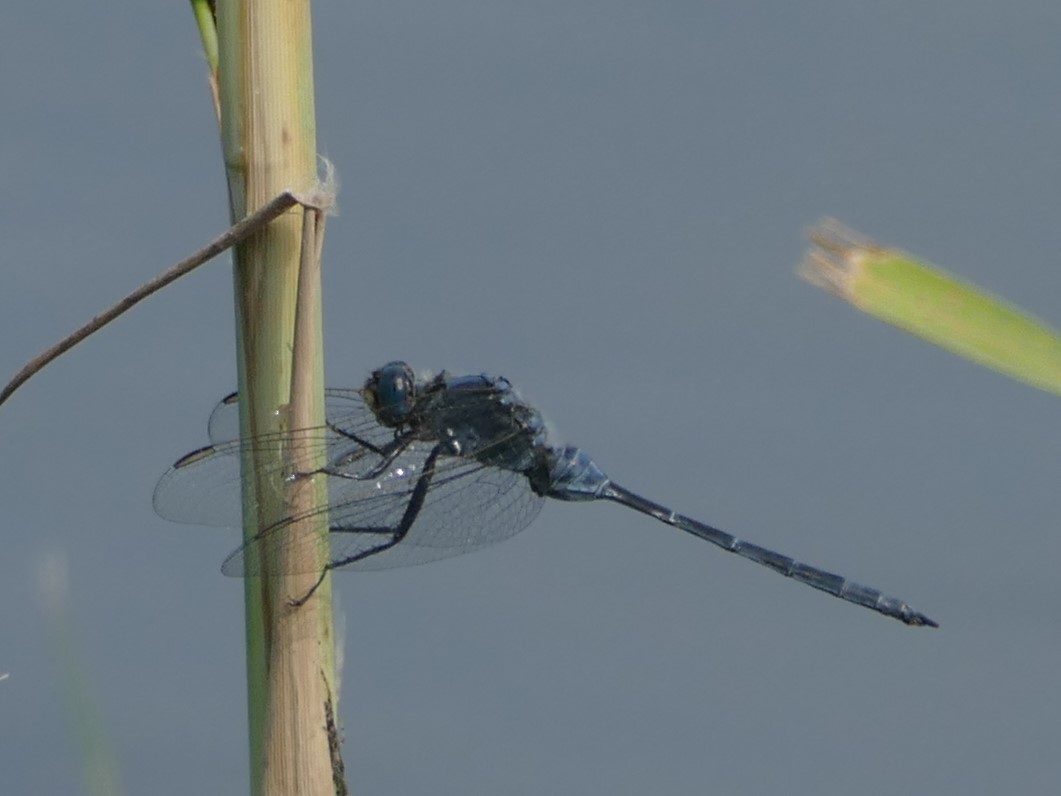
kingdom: Animalia
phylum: Arthropoda
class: Insecta
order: Odonata
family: Libellulidae
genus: Orthetrum
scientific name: Orthetrum trinacria
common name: Long skimmer
